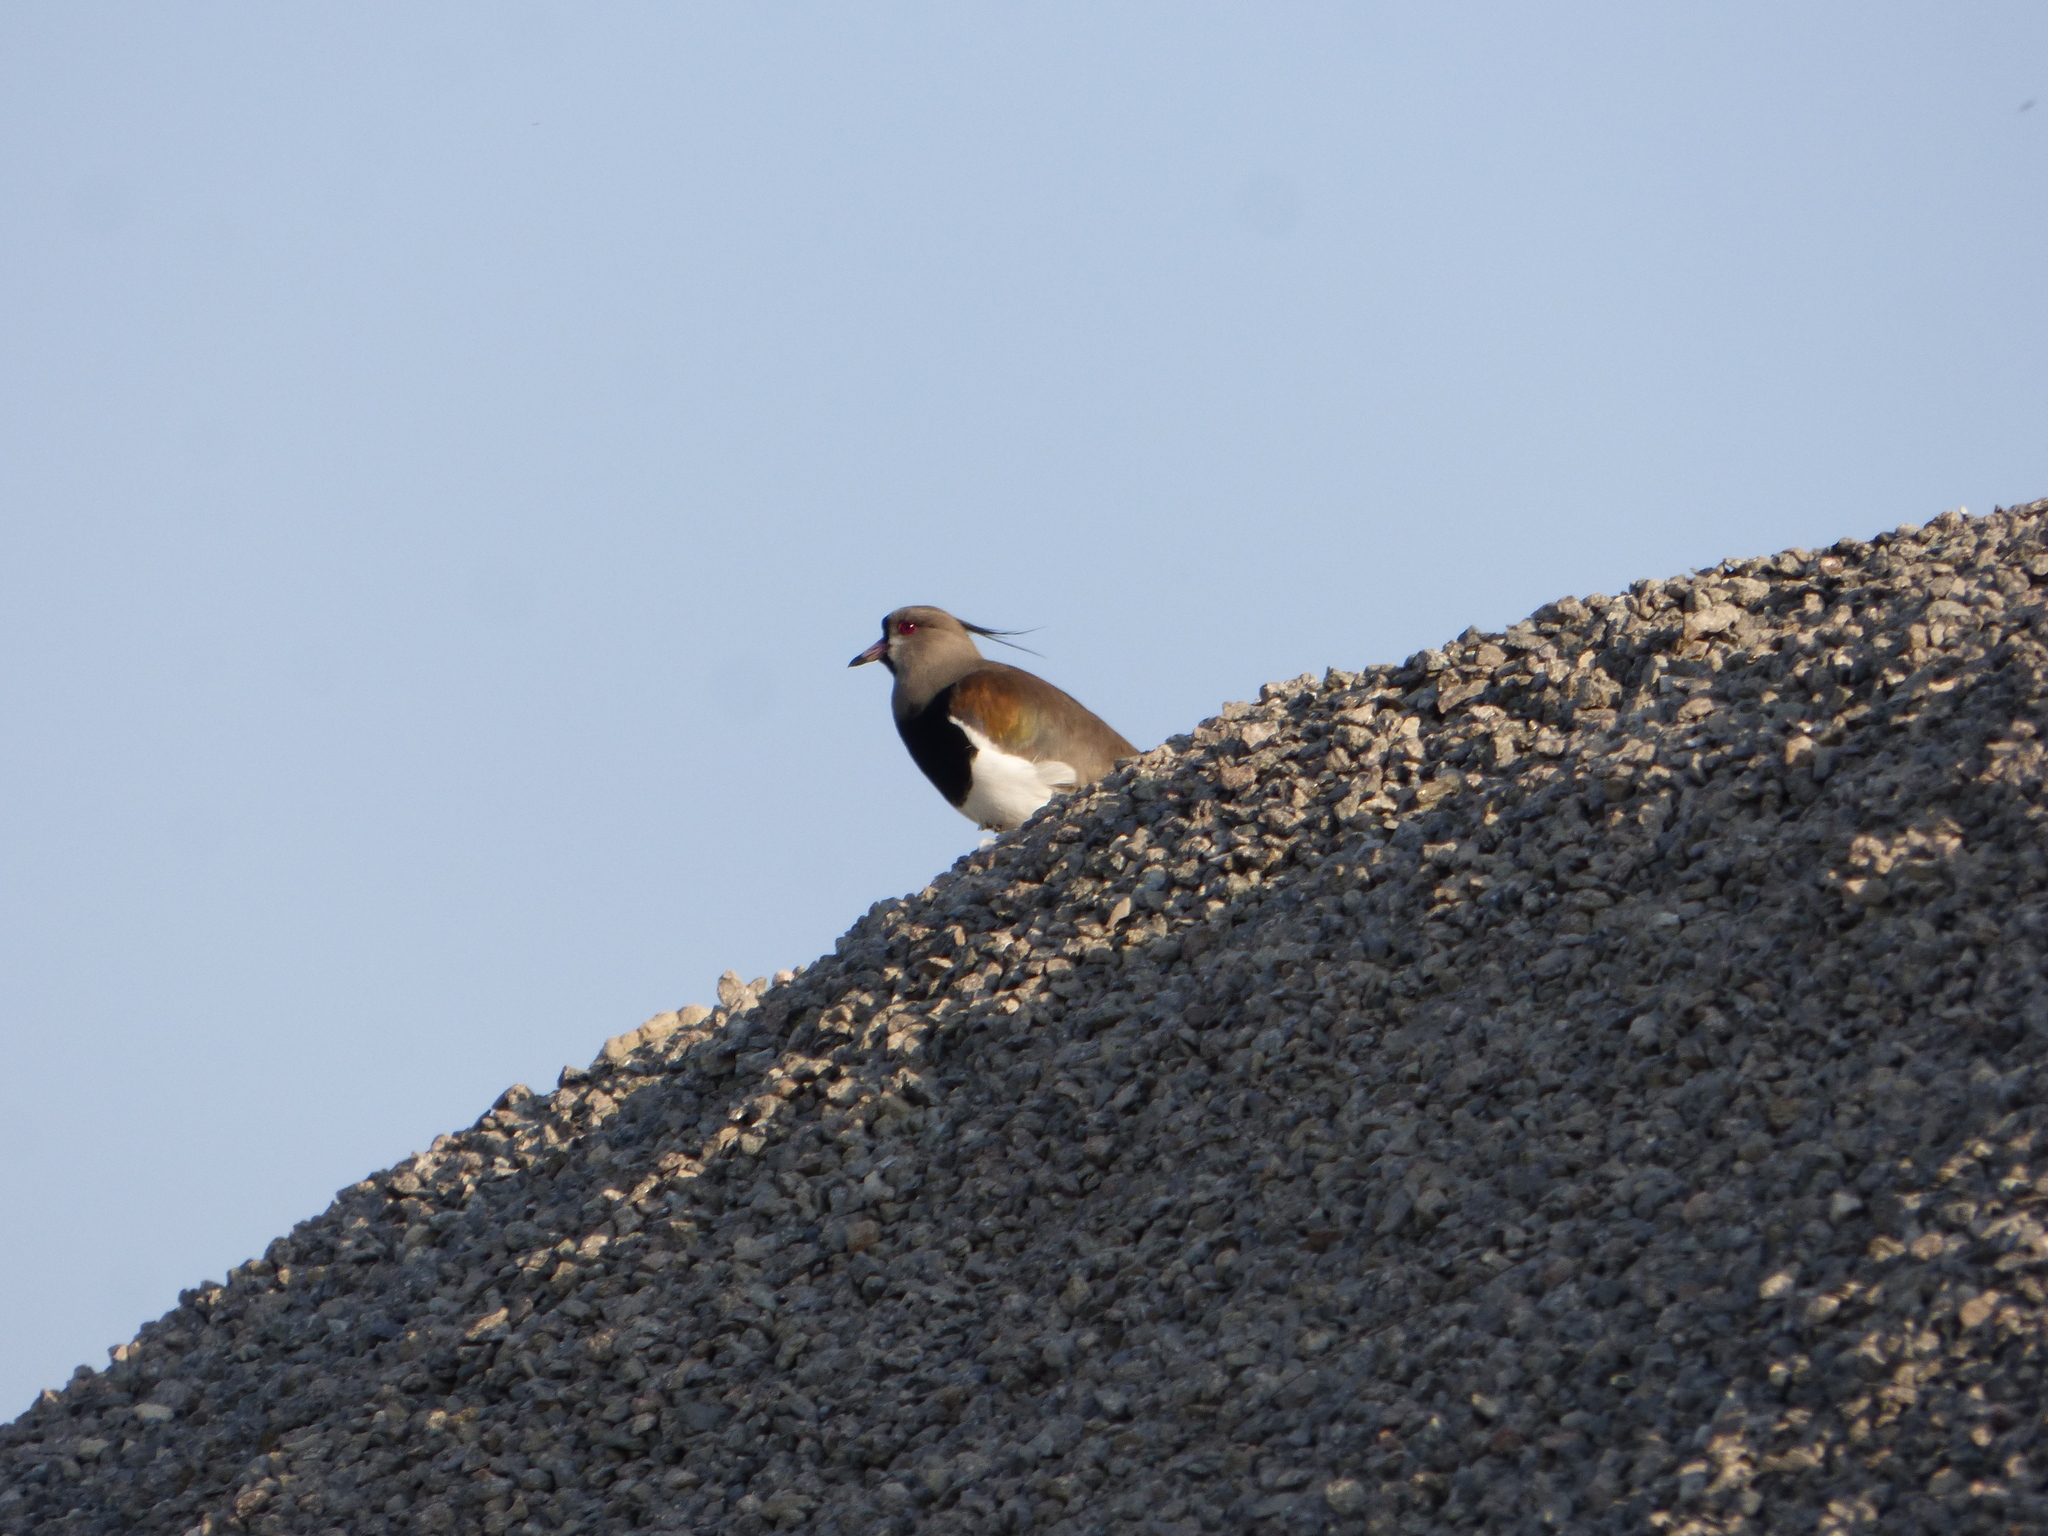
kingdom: Animalia
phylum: Chordata
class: Aves
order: Charadriiformes
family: Charadriidae
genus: Vanellus
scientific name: Vanellus chilensis
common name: Southern lapwing
